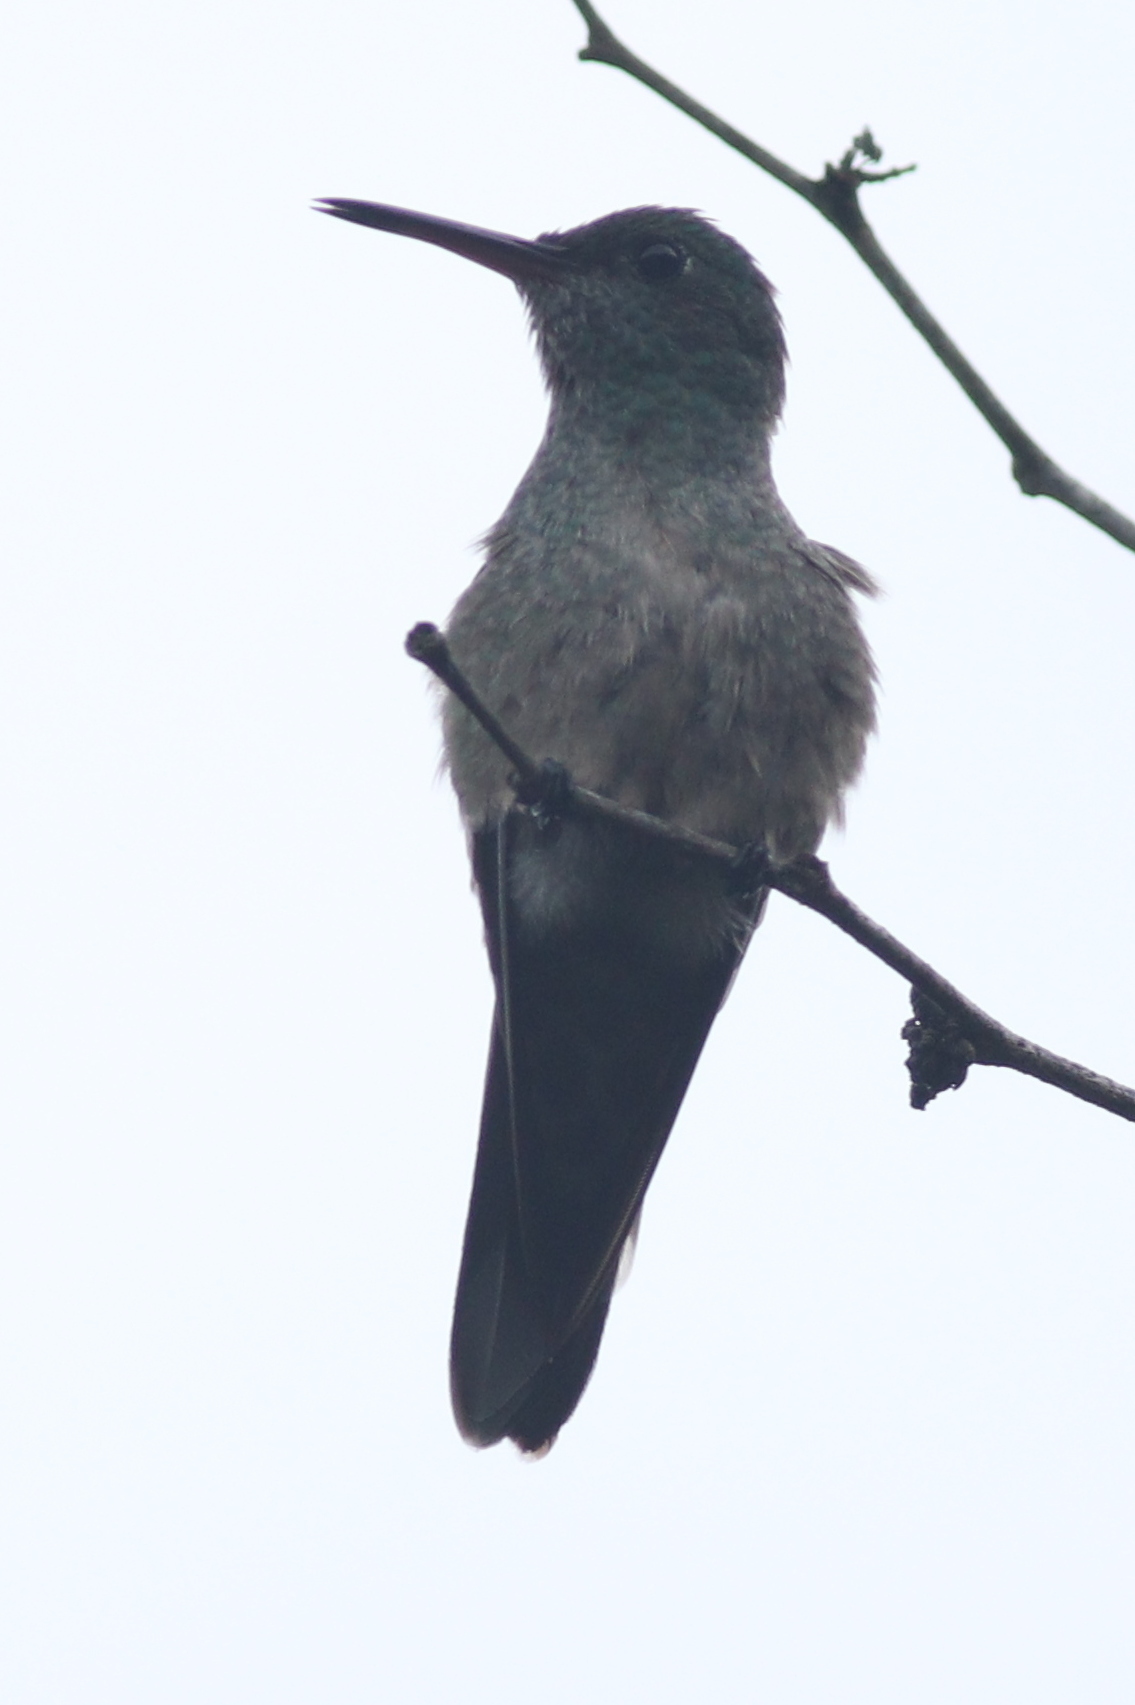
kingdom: Animalia
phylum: Chordata
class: Aves
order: Apodiformes
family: Trochilidae
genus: Phaeochroa
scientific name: Phaeochroa cuvierii
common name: Scaly-breasted hummingbird
